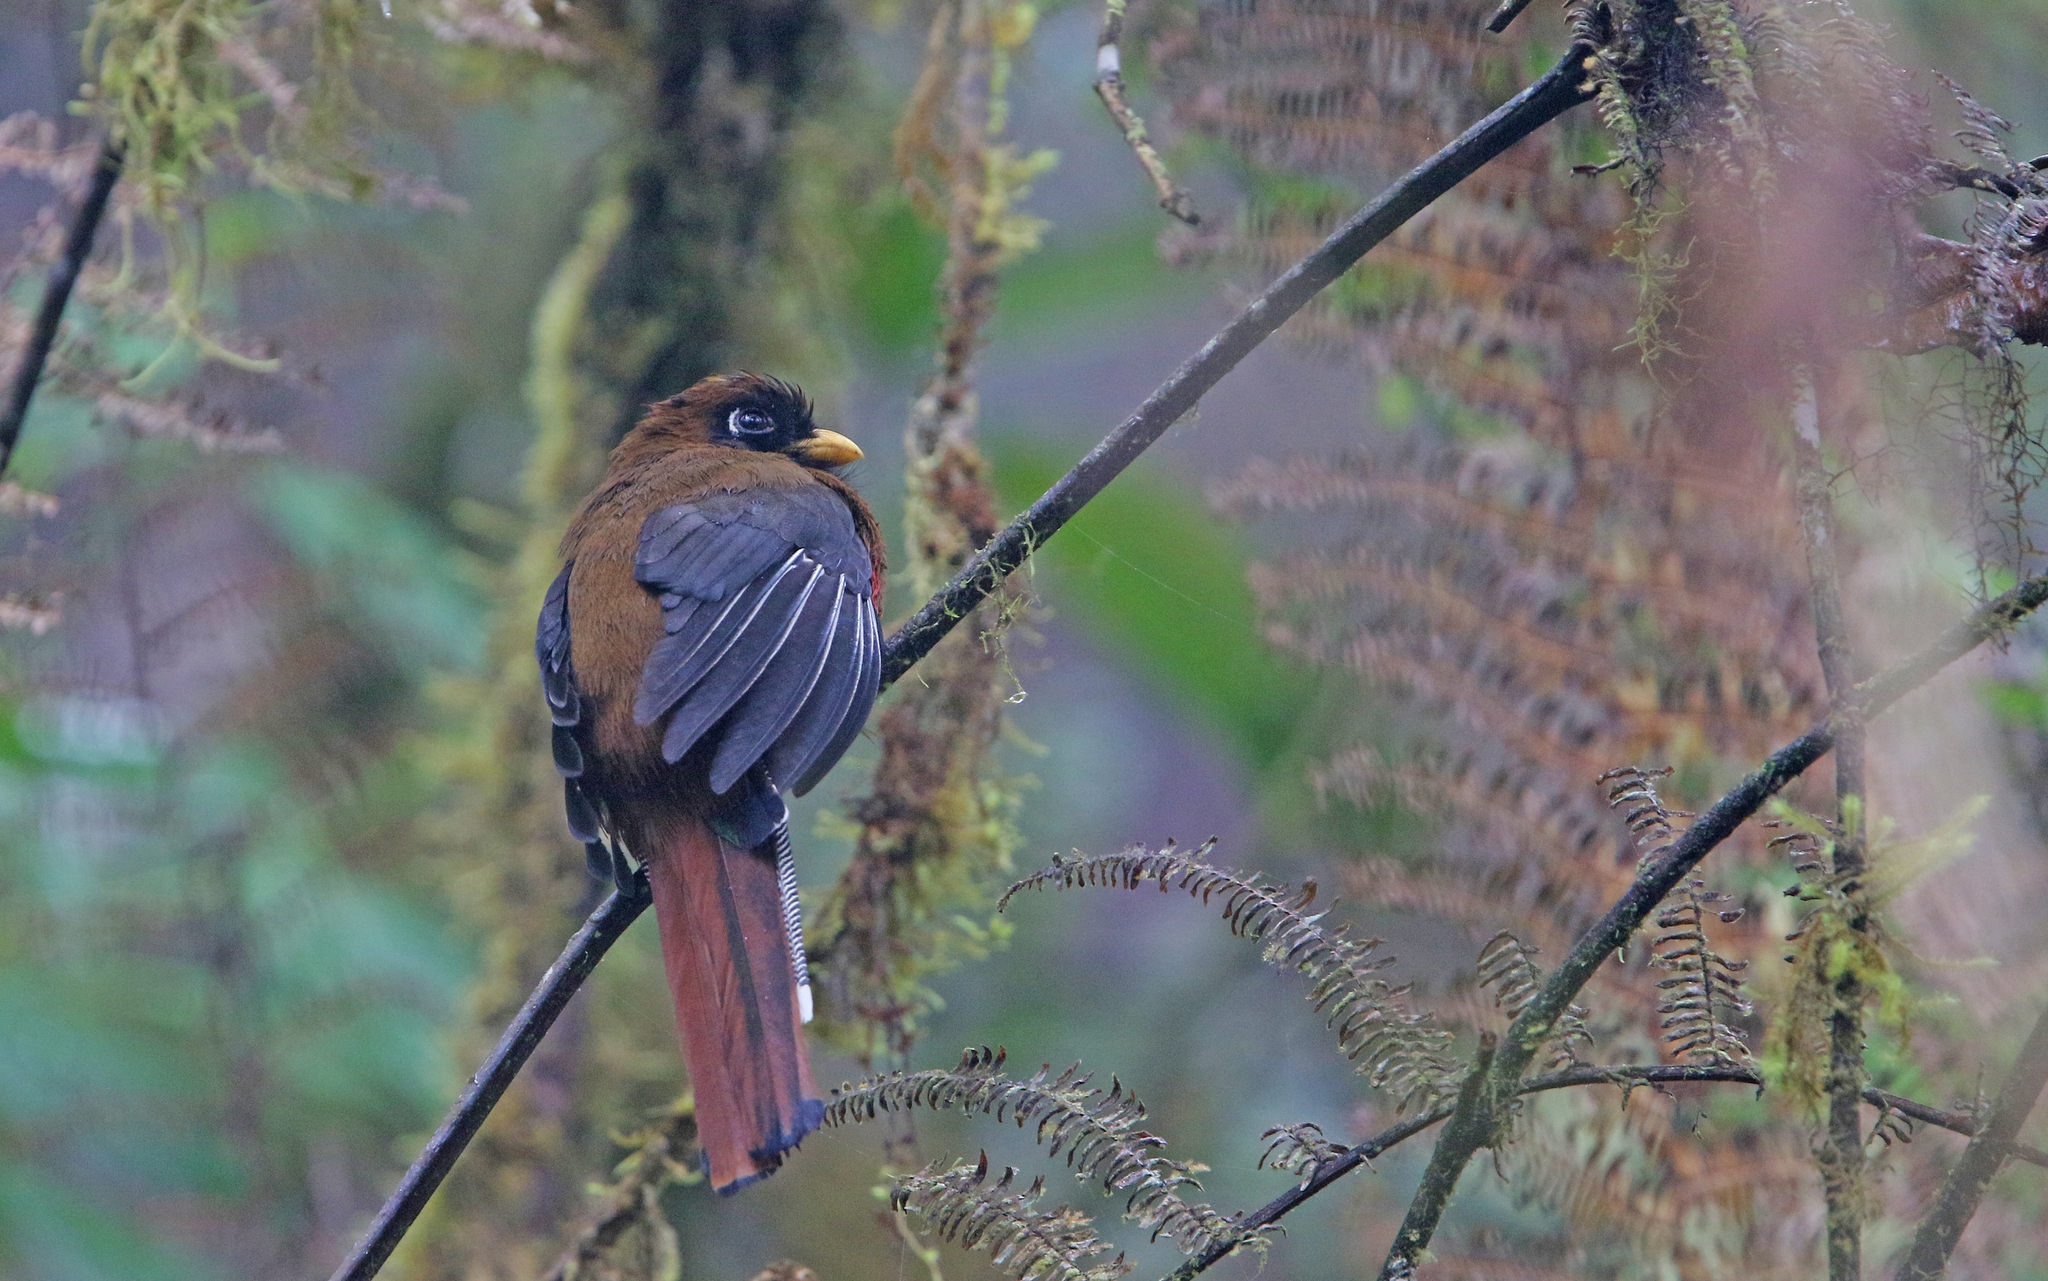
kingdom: Animalia
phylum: Chordata
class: Aves
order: Trogoniformes
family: Trogonidae
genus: Trogon
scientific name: Trogon personatus
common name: Masked trogon
